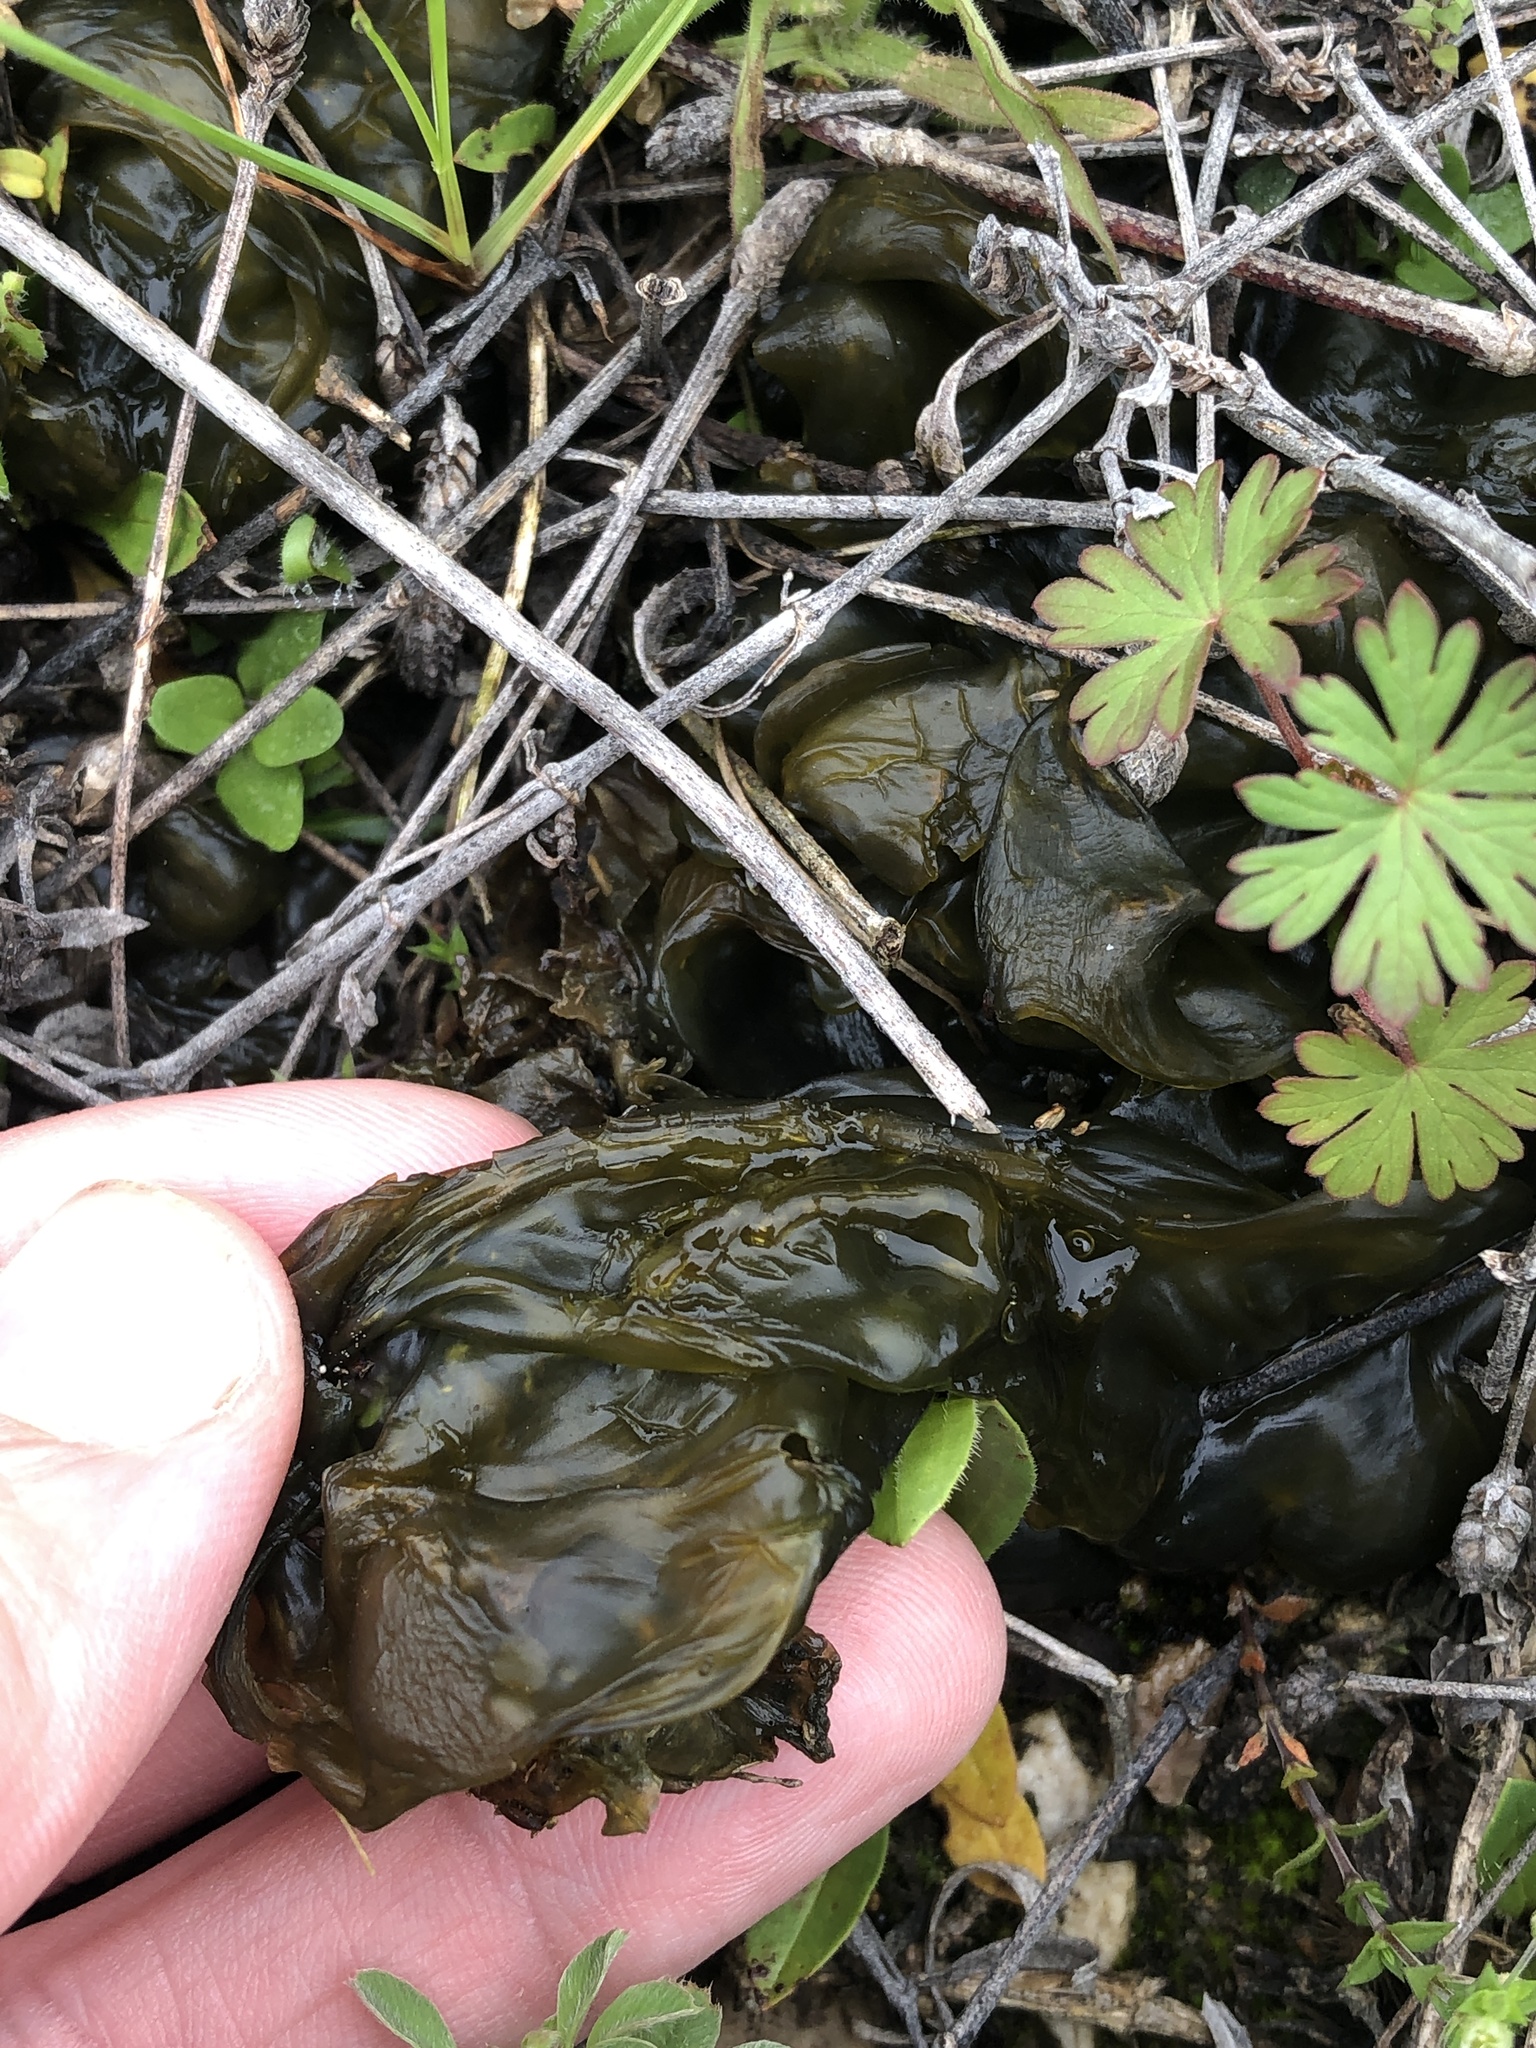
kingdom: Bacteria
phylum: Cyanobacteria
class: Cyanobacteriia
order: Cyanobacteriales
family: Nostocaceae
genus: Nostoc
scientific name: Nostoc commune
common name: Star jelly
